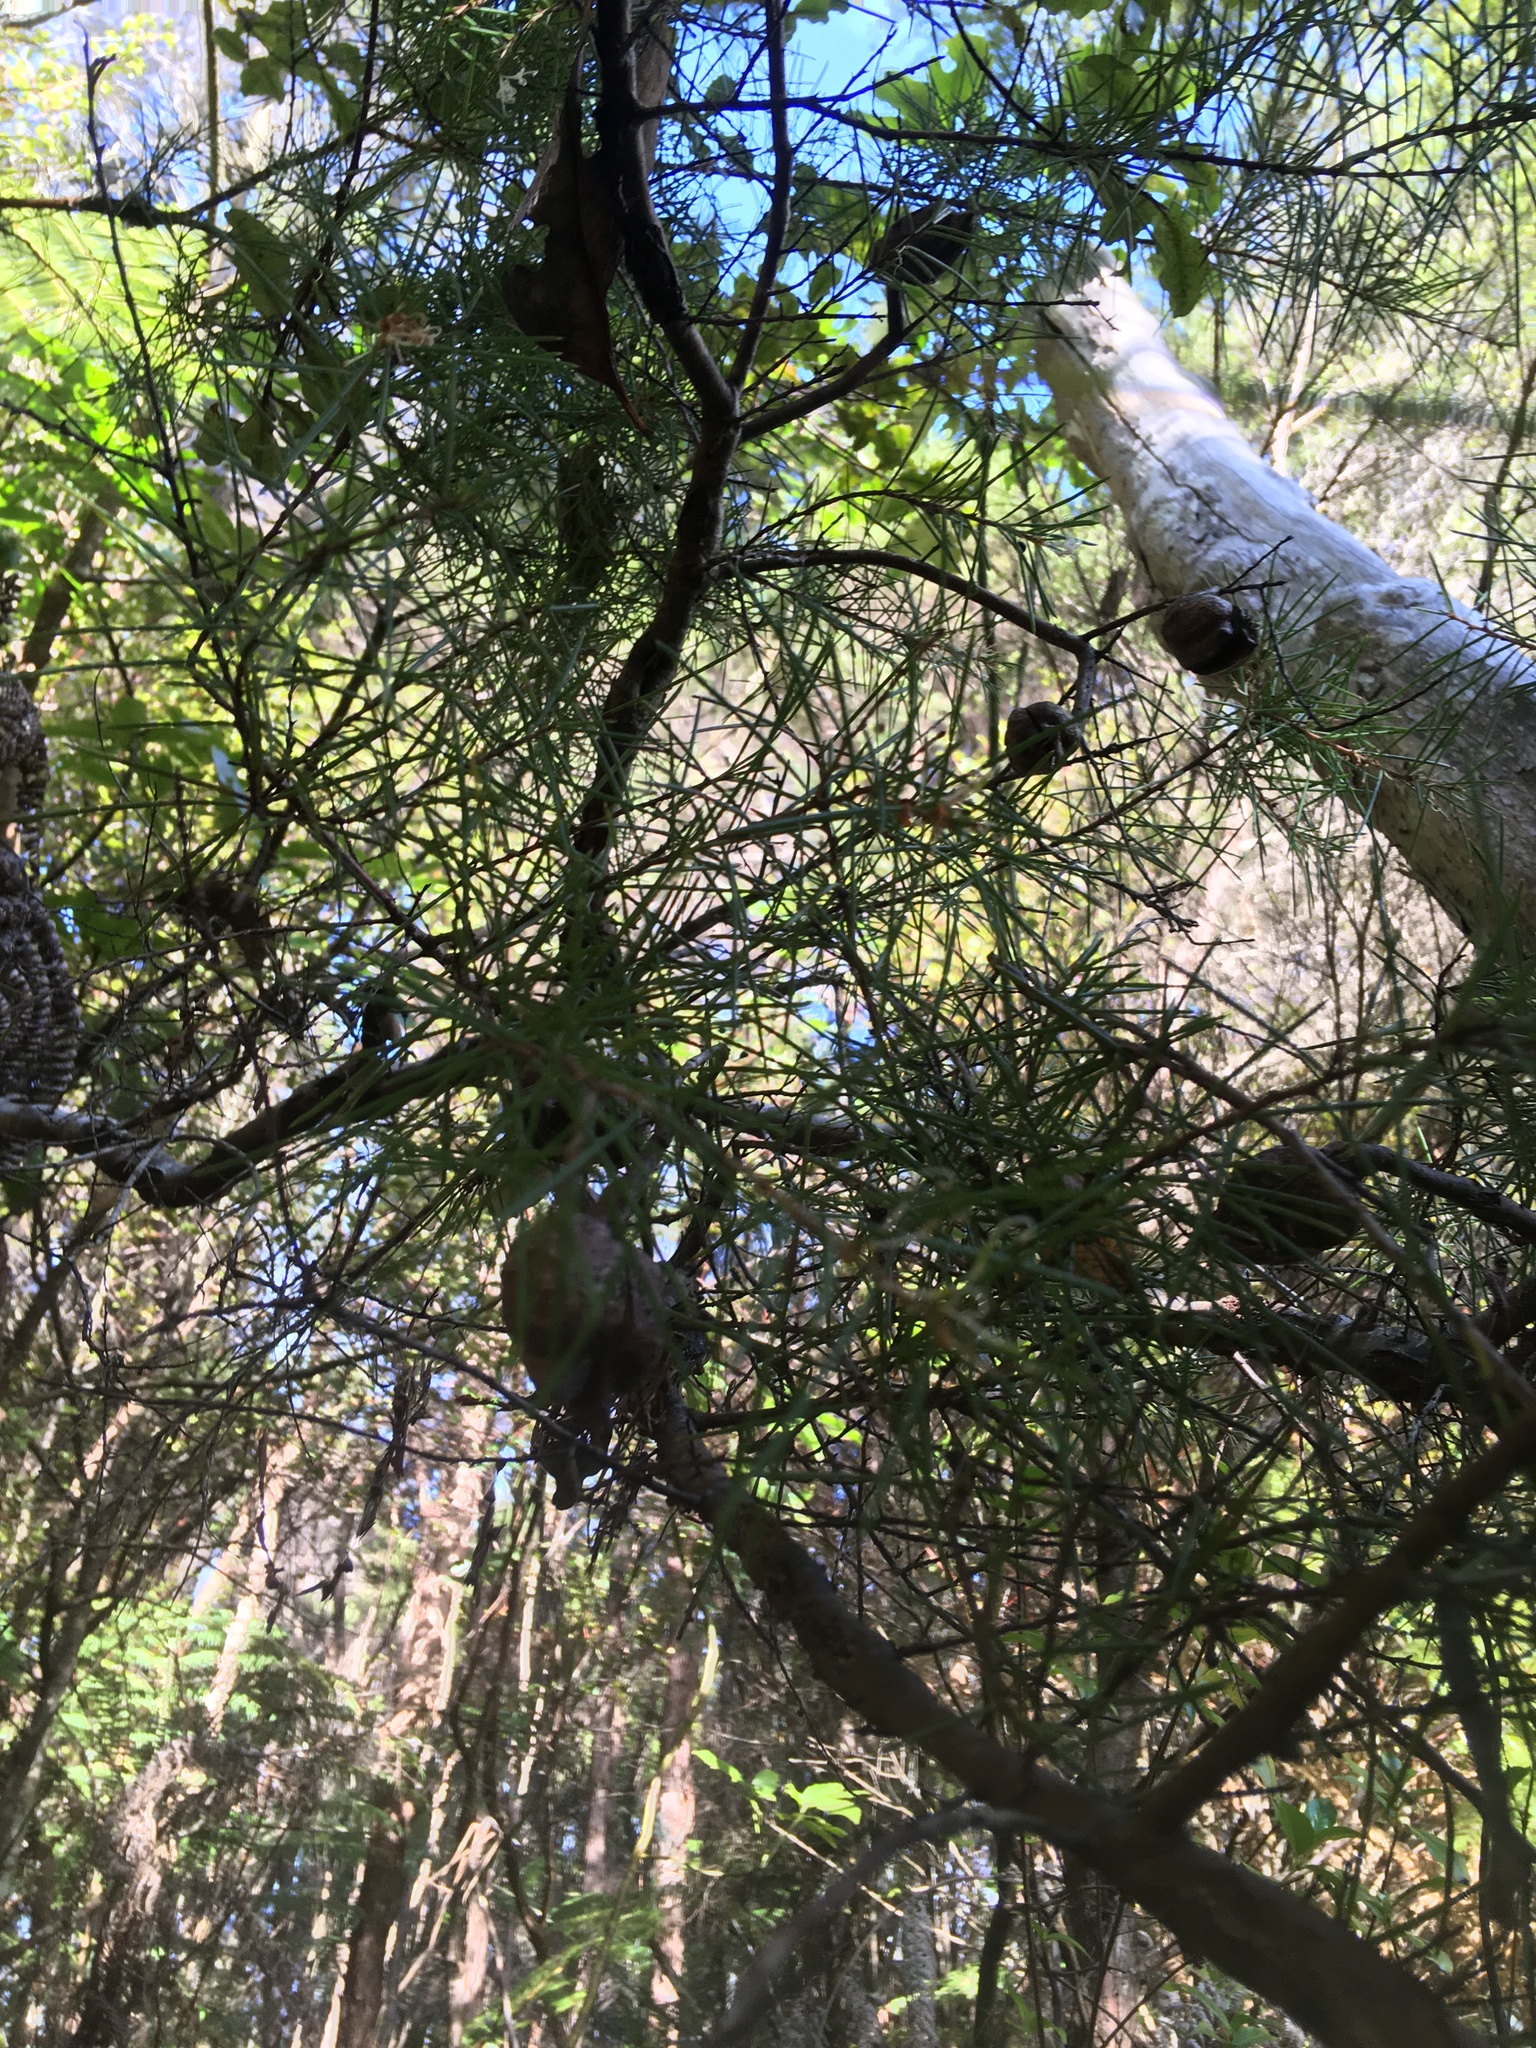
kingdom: Plantae
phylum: Tracheophyta
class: Magnoliopsida
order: Proteales
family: Proteaceae
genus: Hakea
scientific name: Hakea sericea
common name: Needle bush
